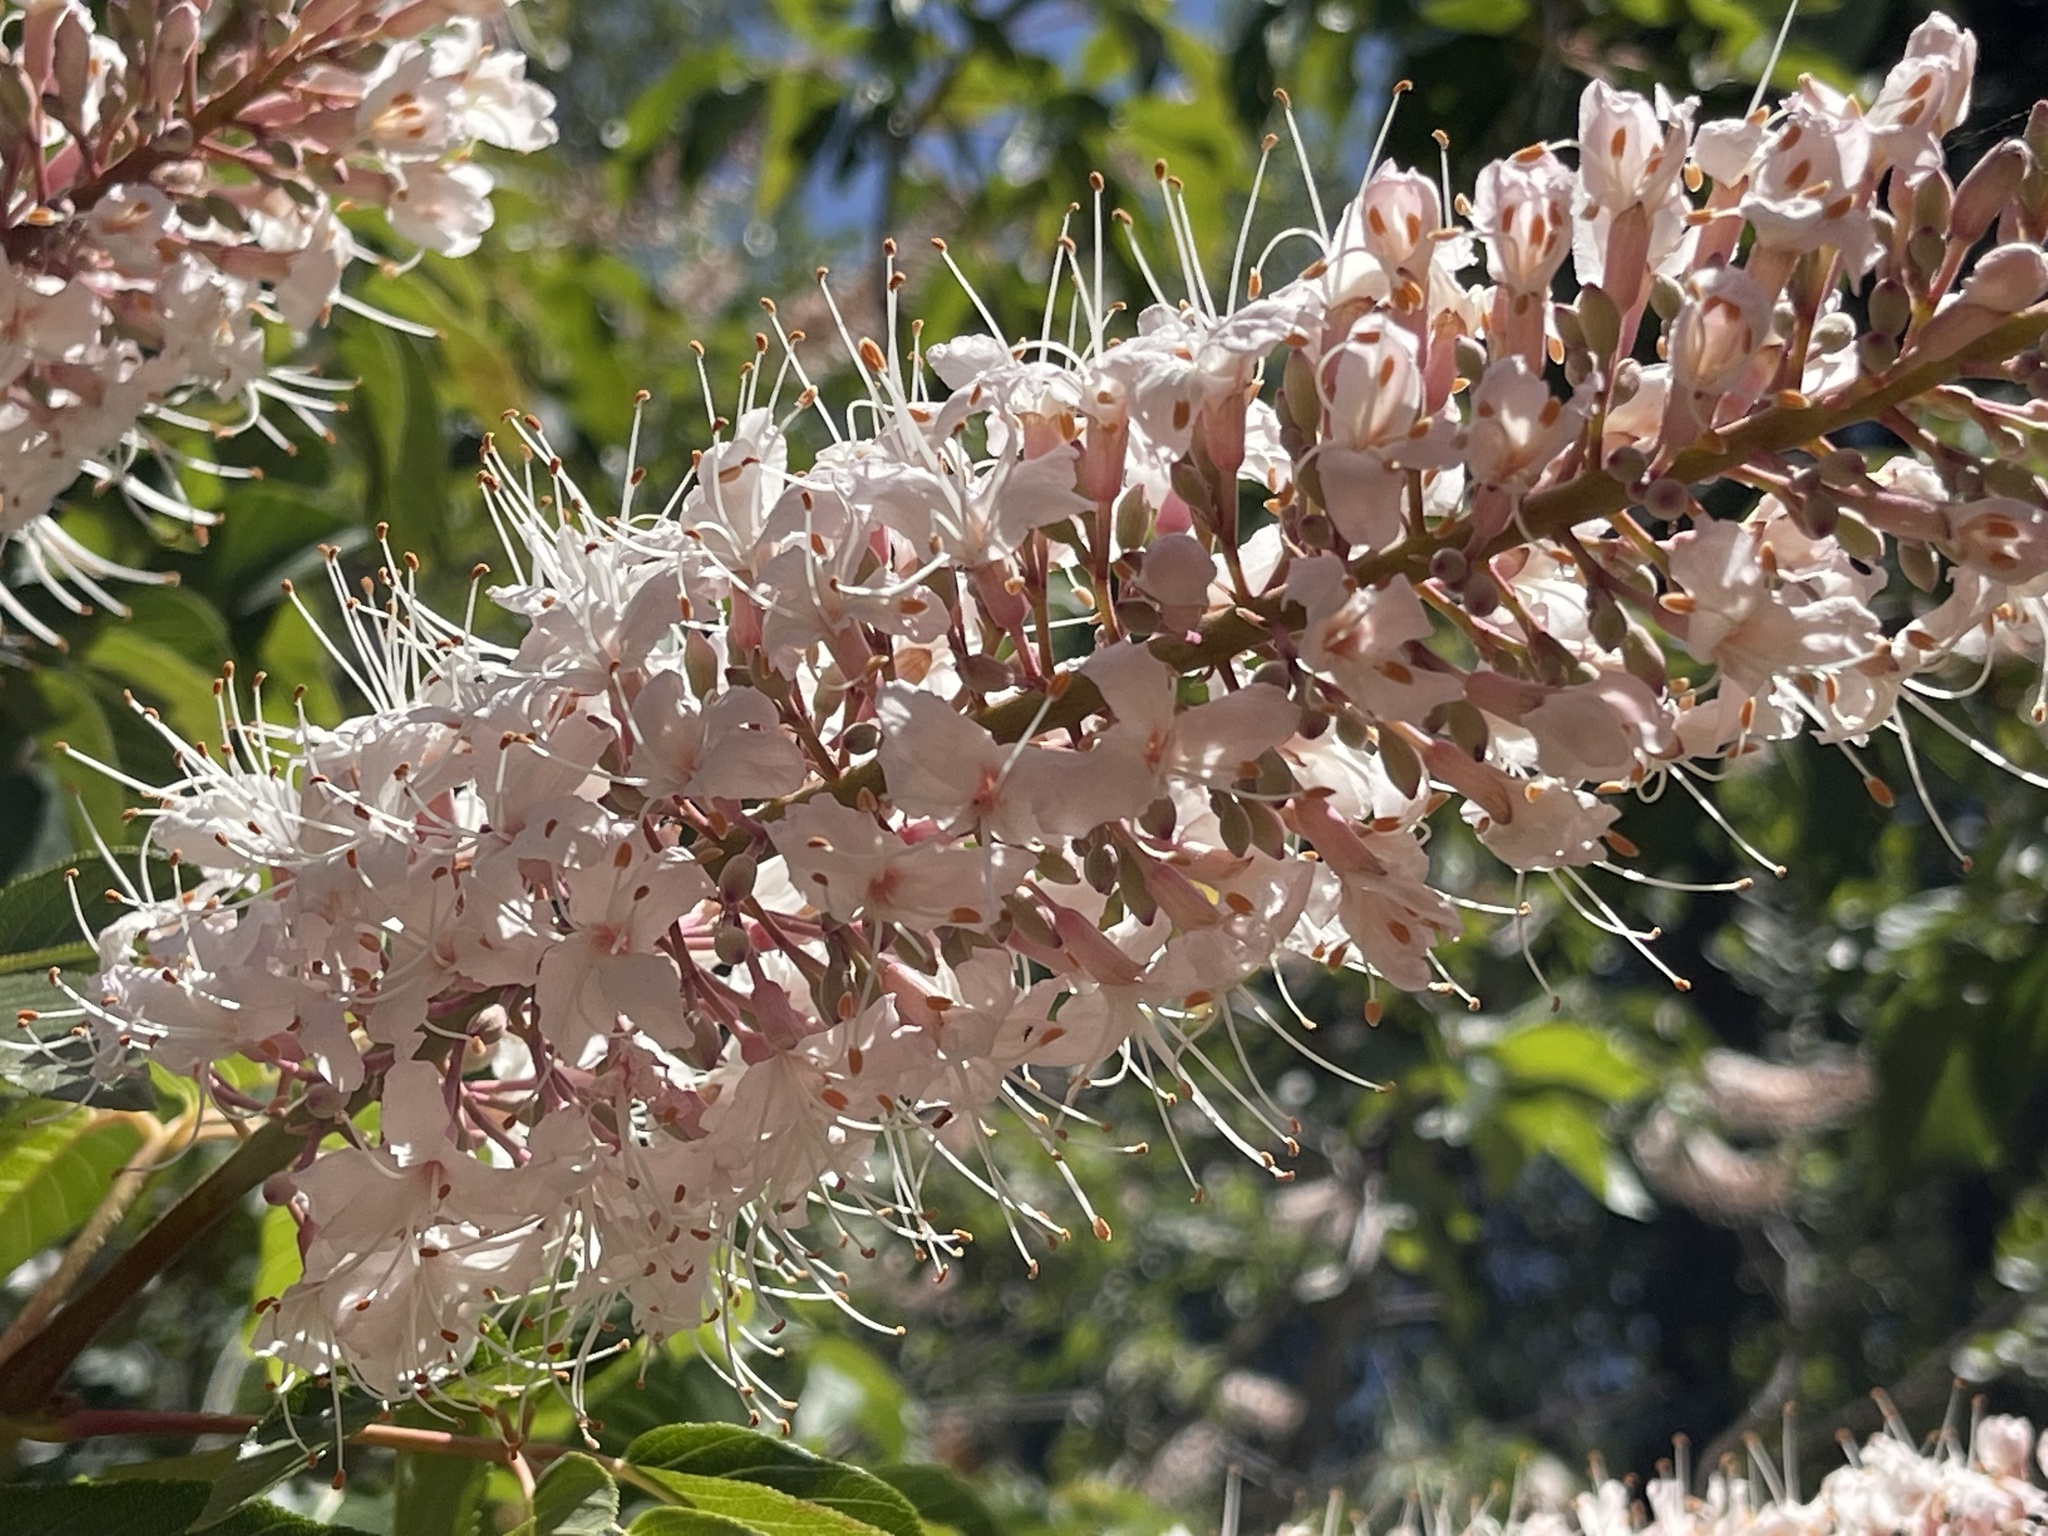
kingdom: Plantae
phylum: Tracheophyta
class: Magnoliopsida
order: Sapindales
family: Sapindaceae
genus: Aesculus
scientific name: Aesculus californica
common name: California buckeye
